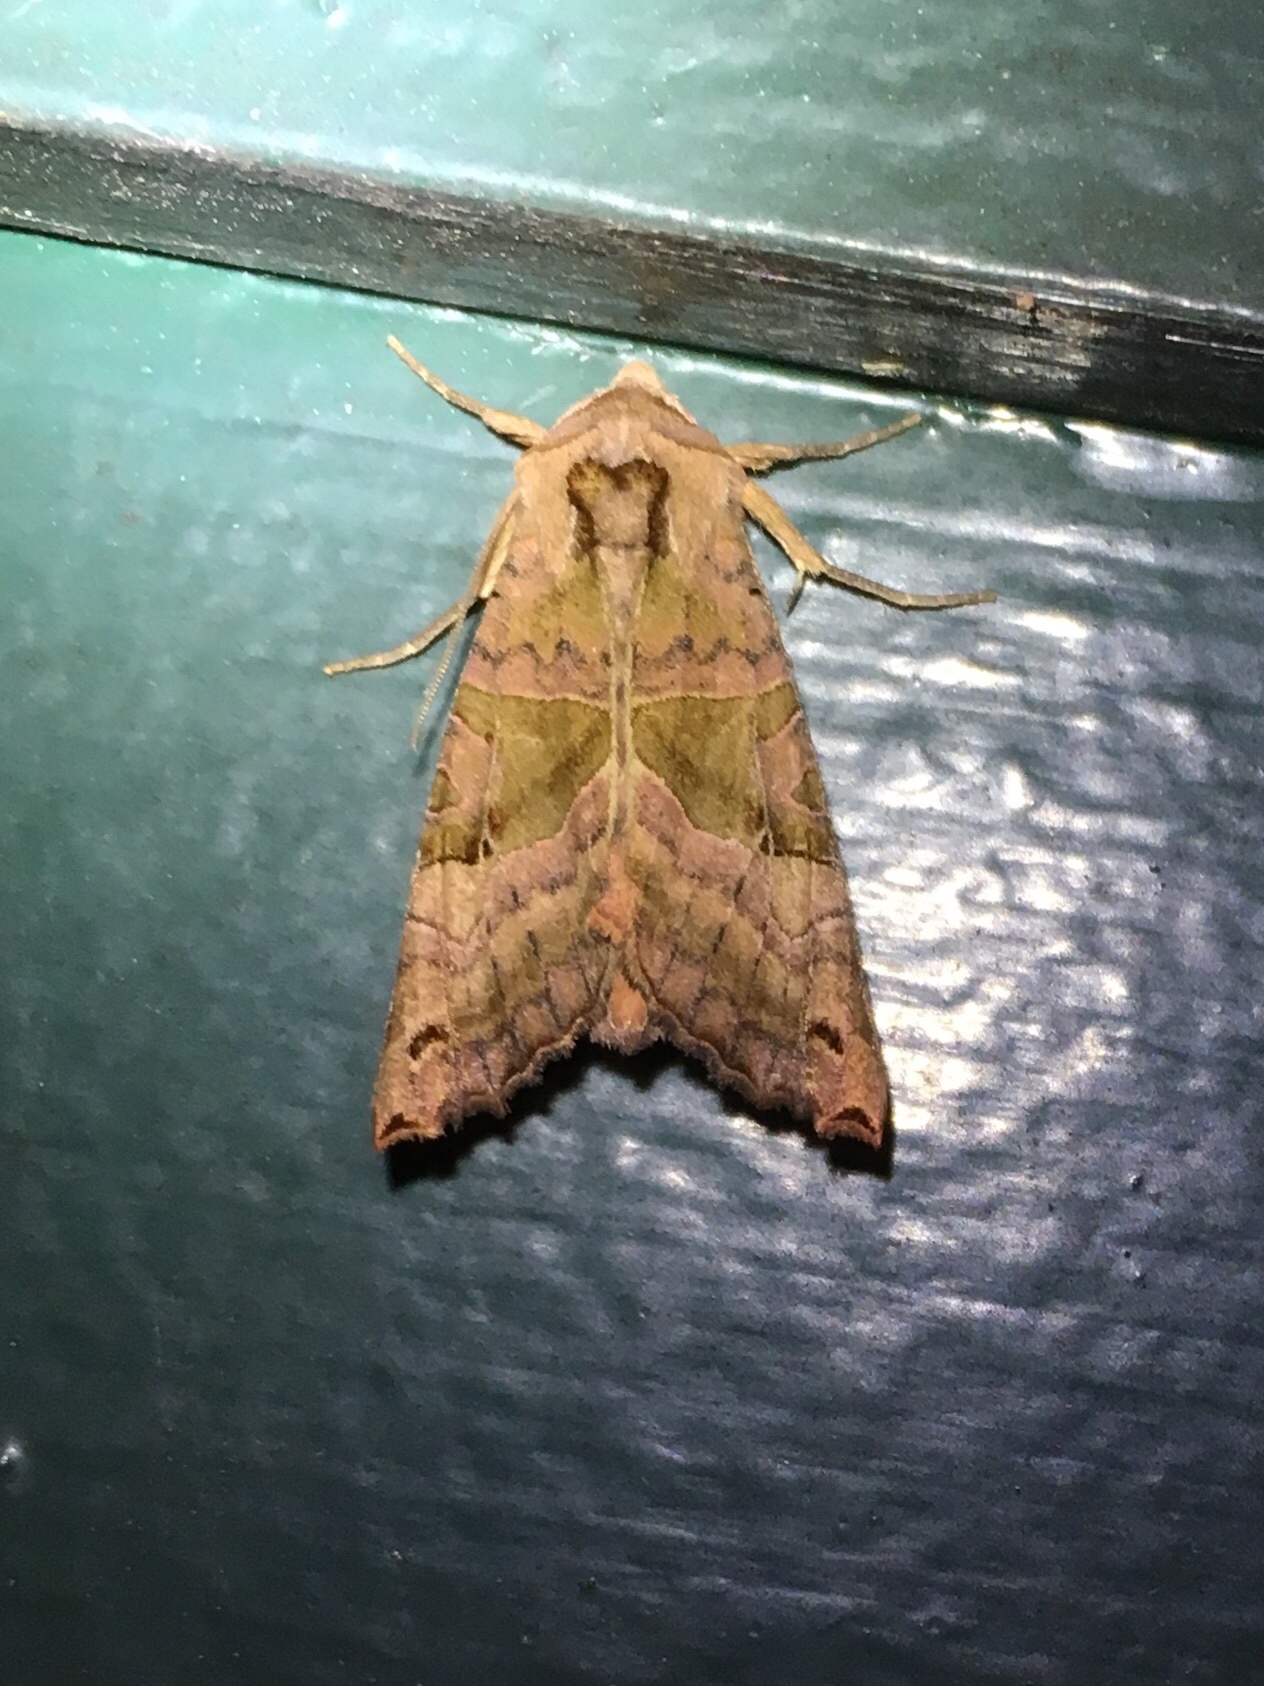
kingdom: Animalia
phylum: Arthropoda
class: Insecta
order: Lepidoptera
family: Noctuidae
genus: Phlogophora
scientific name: Phlogophora periculosa
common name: Brown angle shades
